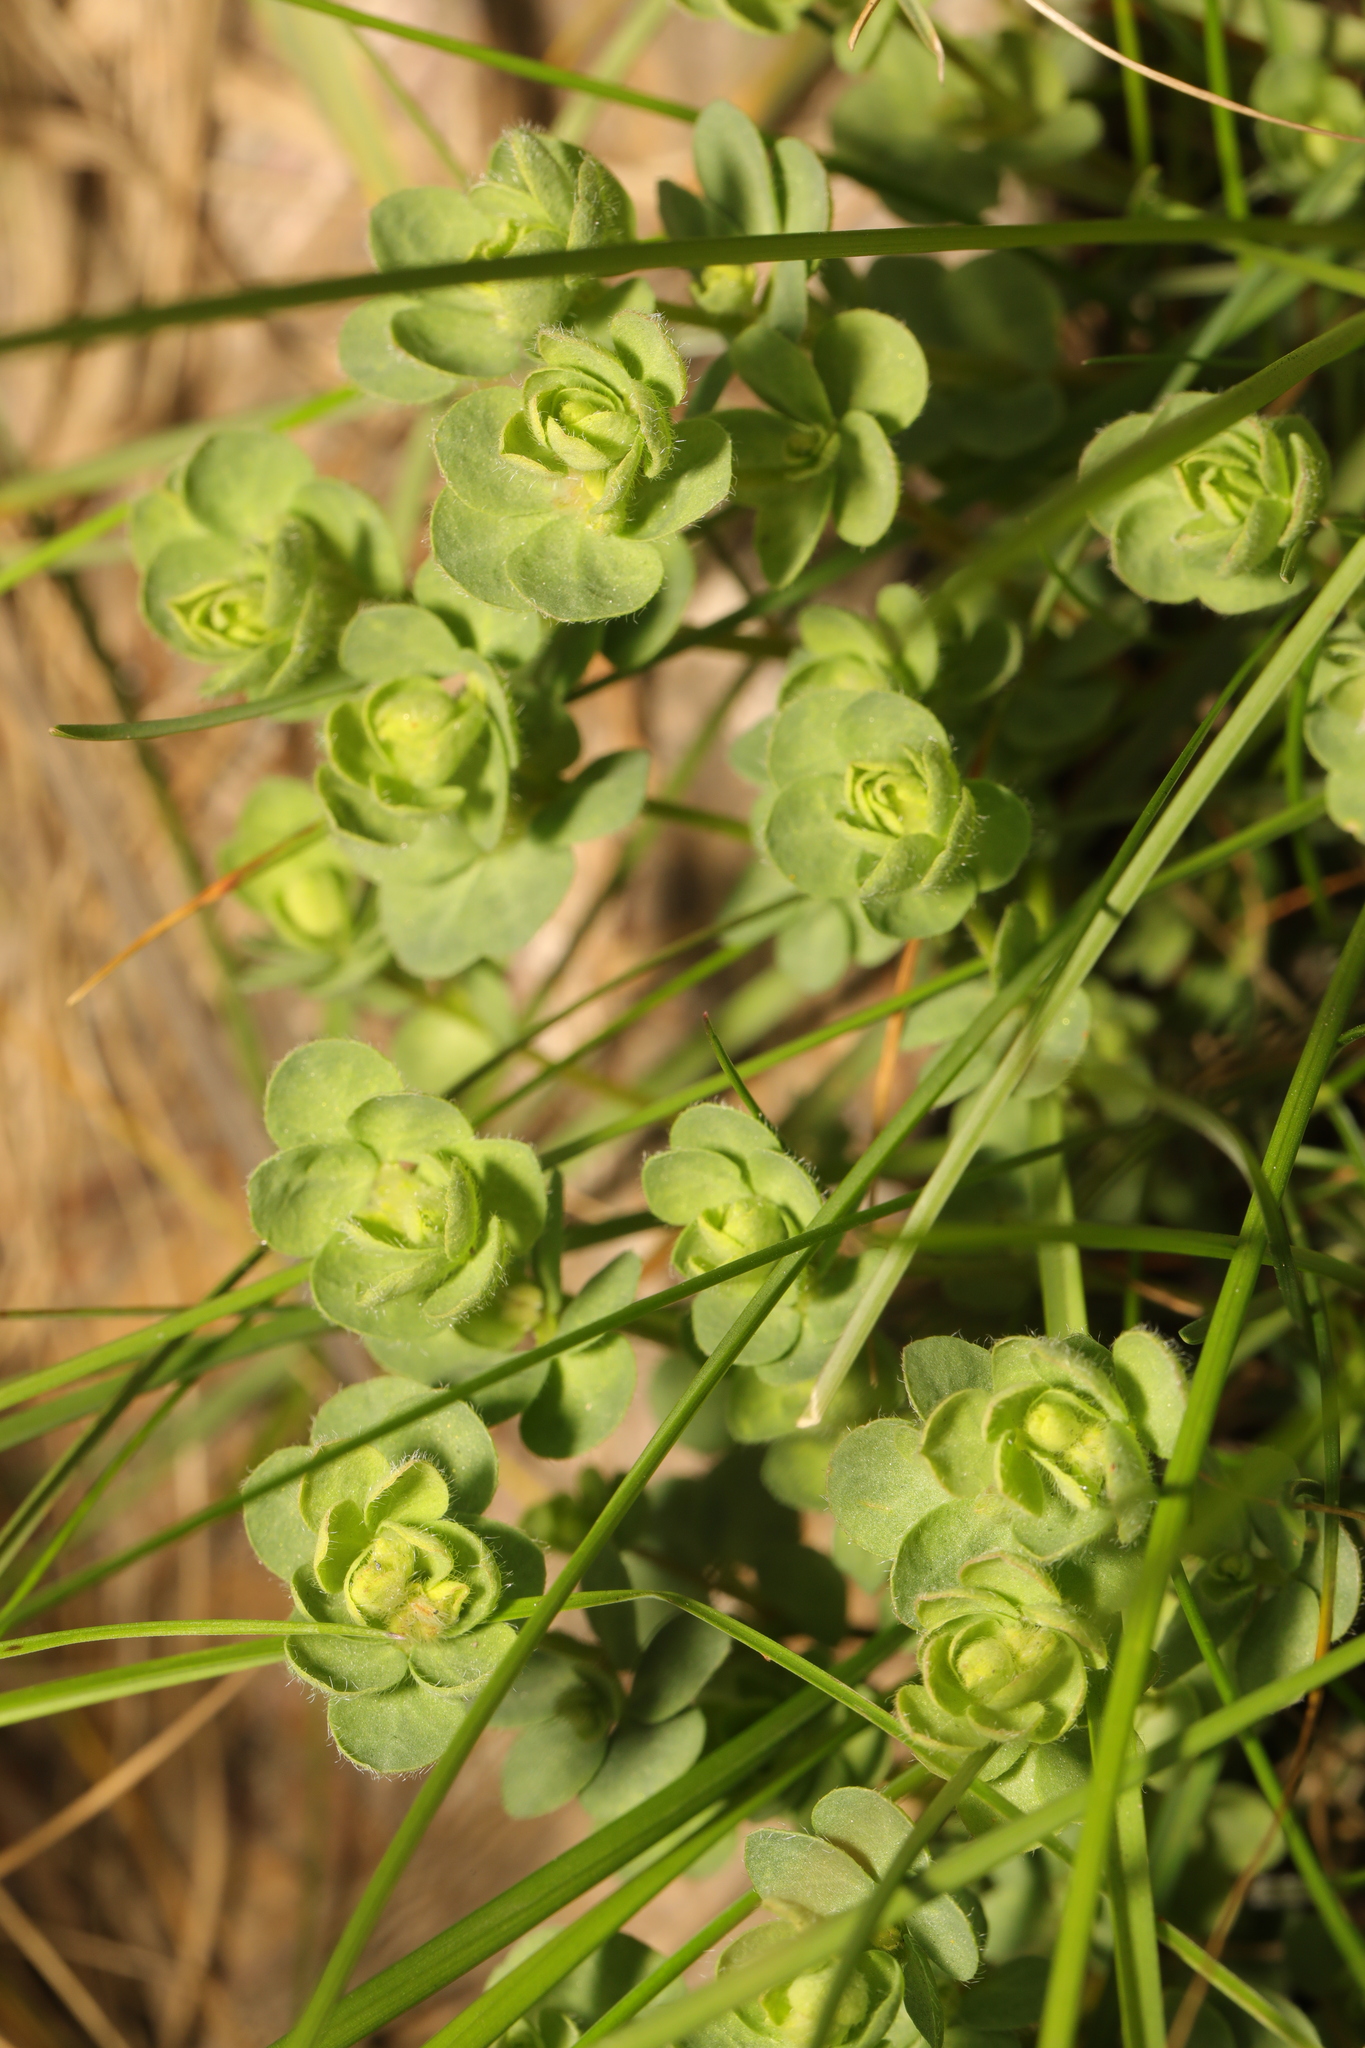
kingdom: Plantae
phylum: Tracheophyta
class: Magnoliopsida
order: Fabales
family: Fabaceae
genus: Lotus
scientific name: Lotus corniculatus
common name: Common bird's-foot-trefoil
